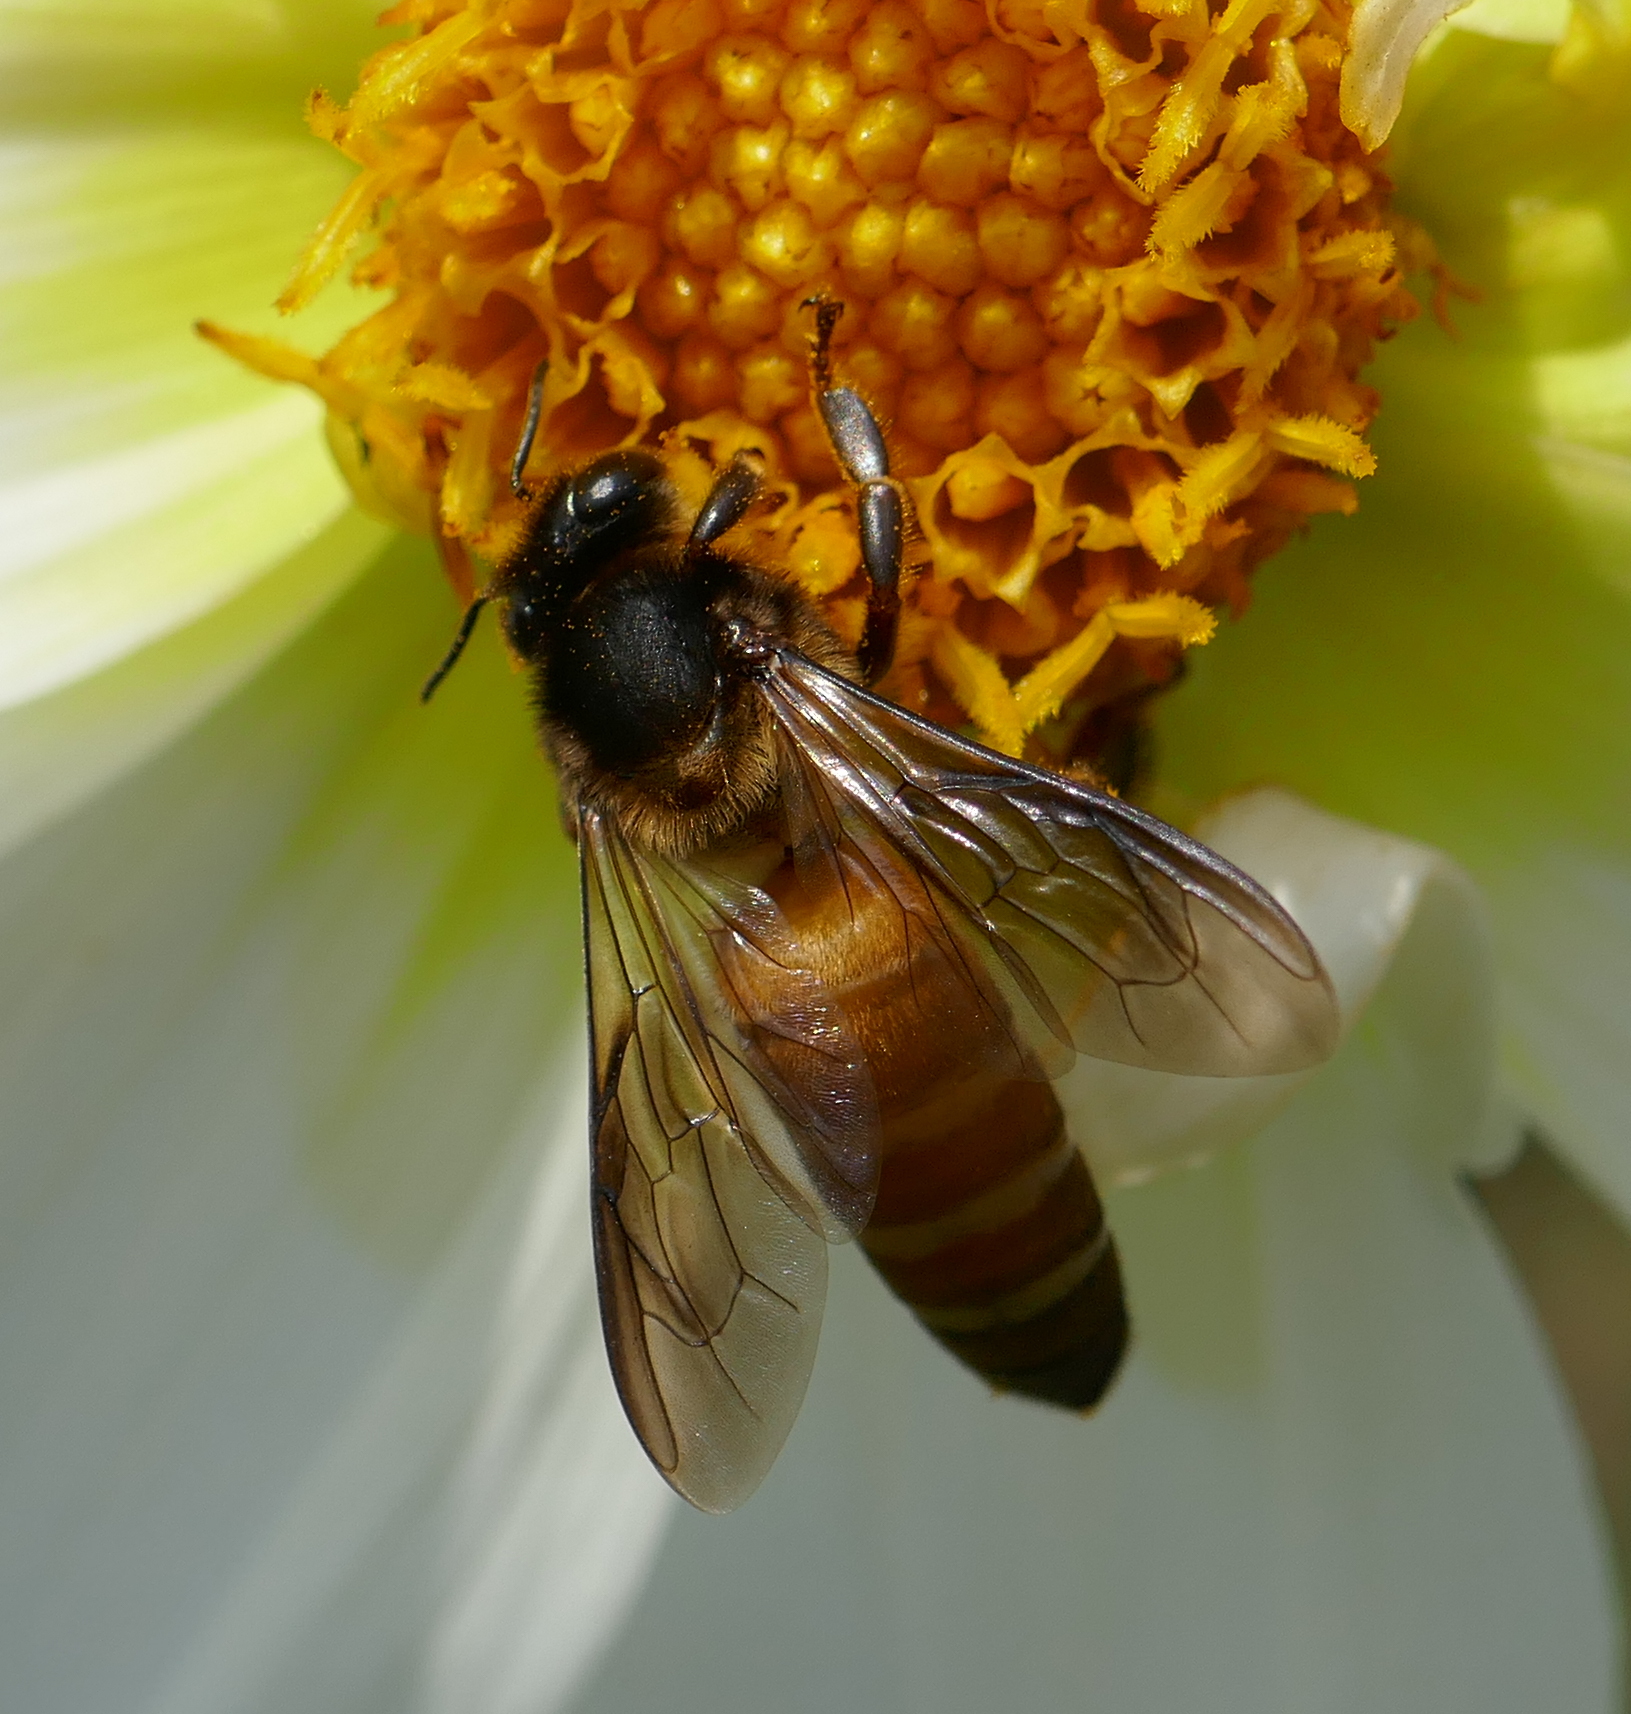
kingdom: Animalia
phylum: Arthropoda
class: Insecta
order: Hymenoptera
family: Apidae
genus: Apis
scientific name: Apis dorsata
